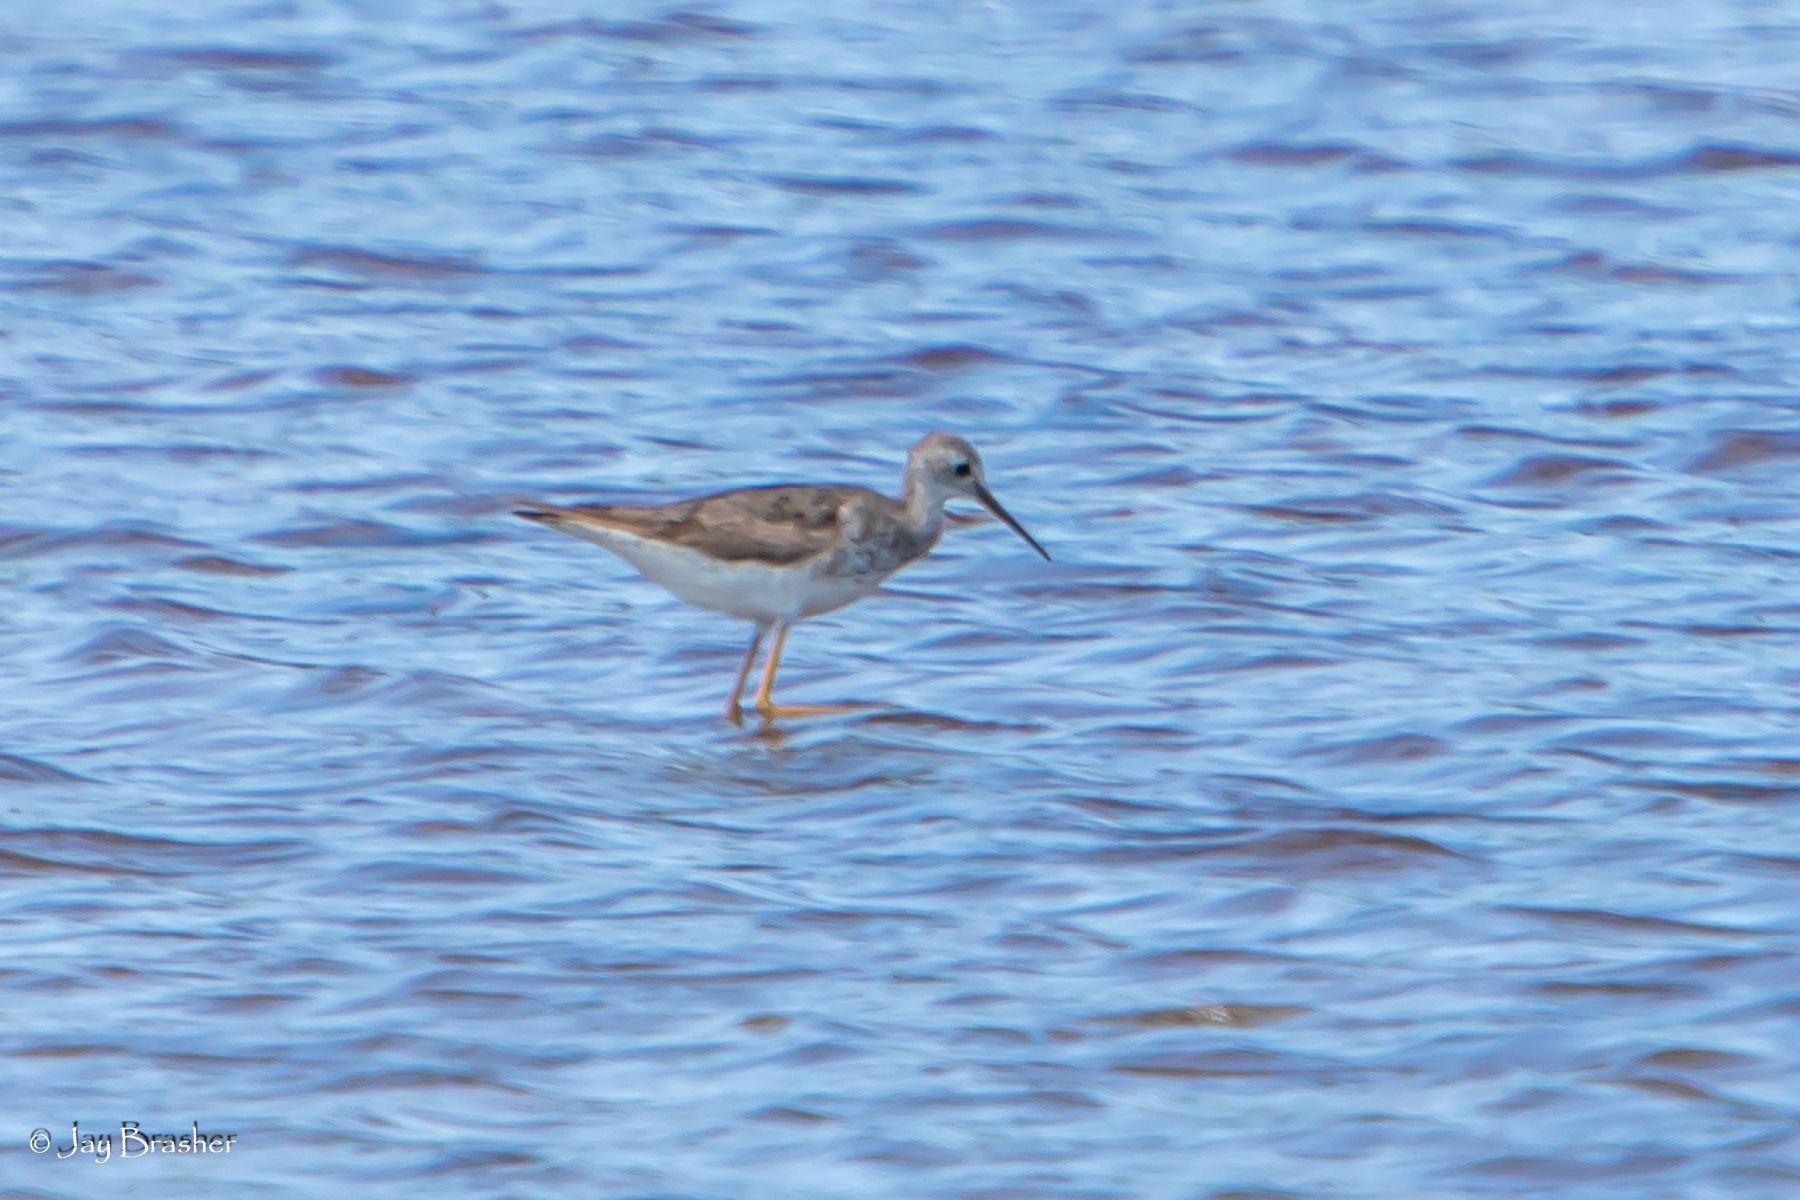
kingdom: Animalia
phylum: Chordata
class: Aves
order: Charadriiformes
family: Scolopacidae
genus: Tringa
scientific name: Tringa melanoleuca
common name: Greater yellowlegs
